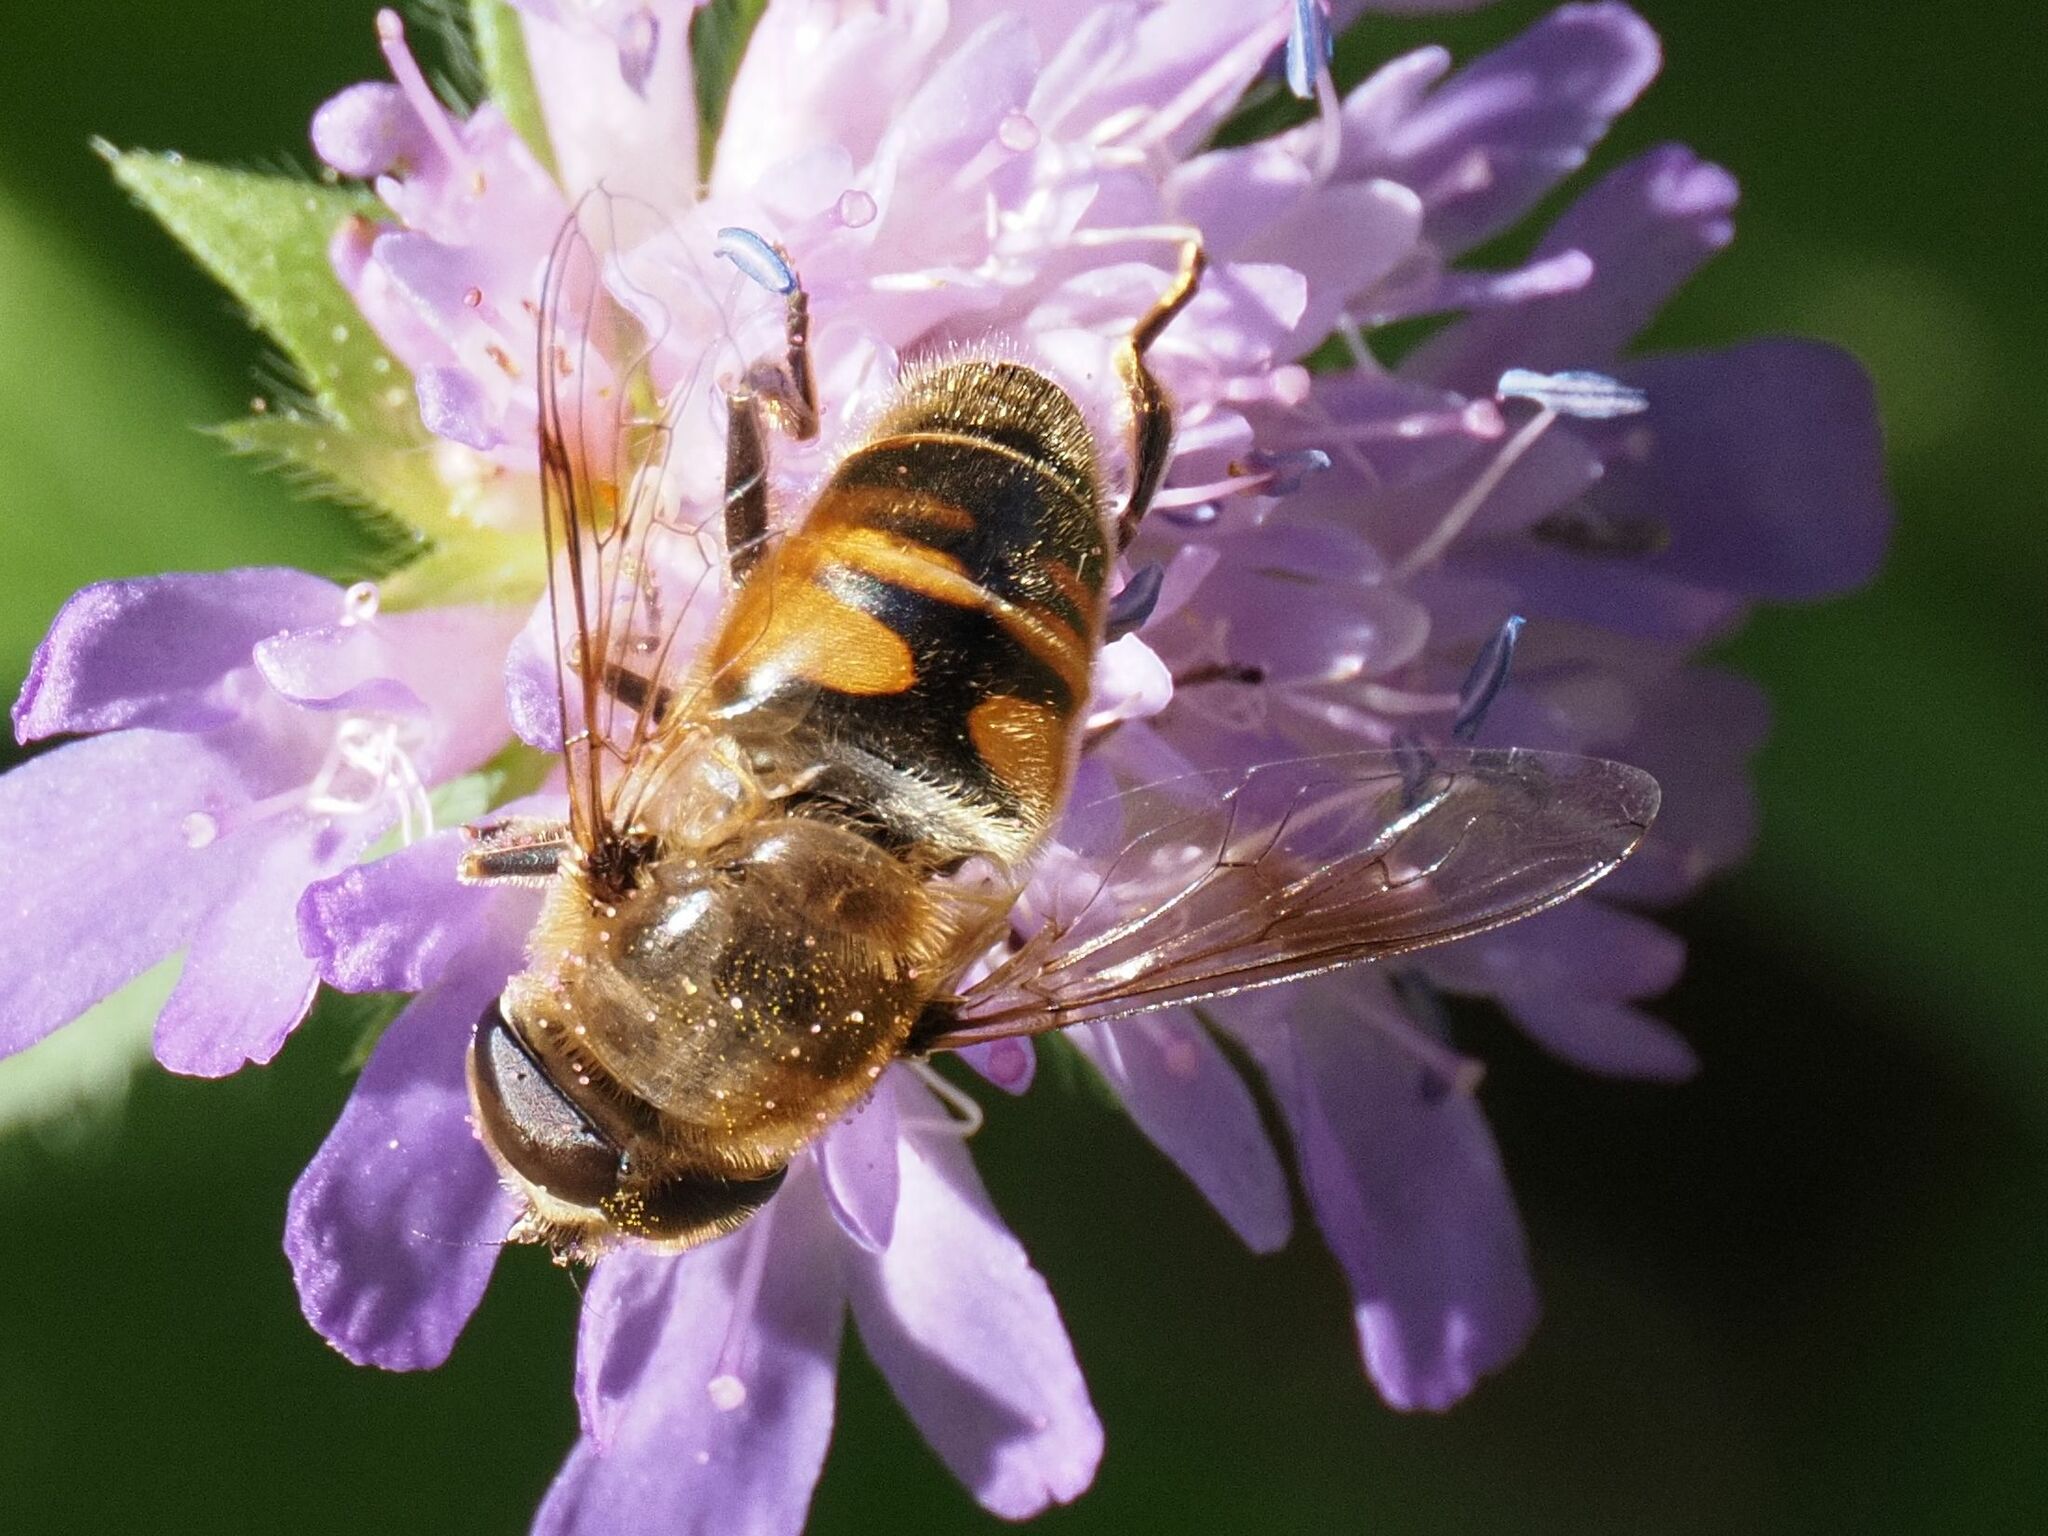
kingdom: Animalia
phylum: Arthropoda
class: Insecta
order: Diptera
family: Syrphidae
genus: Eristalis
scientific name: Eristalis tenax
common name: Drone fly
